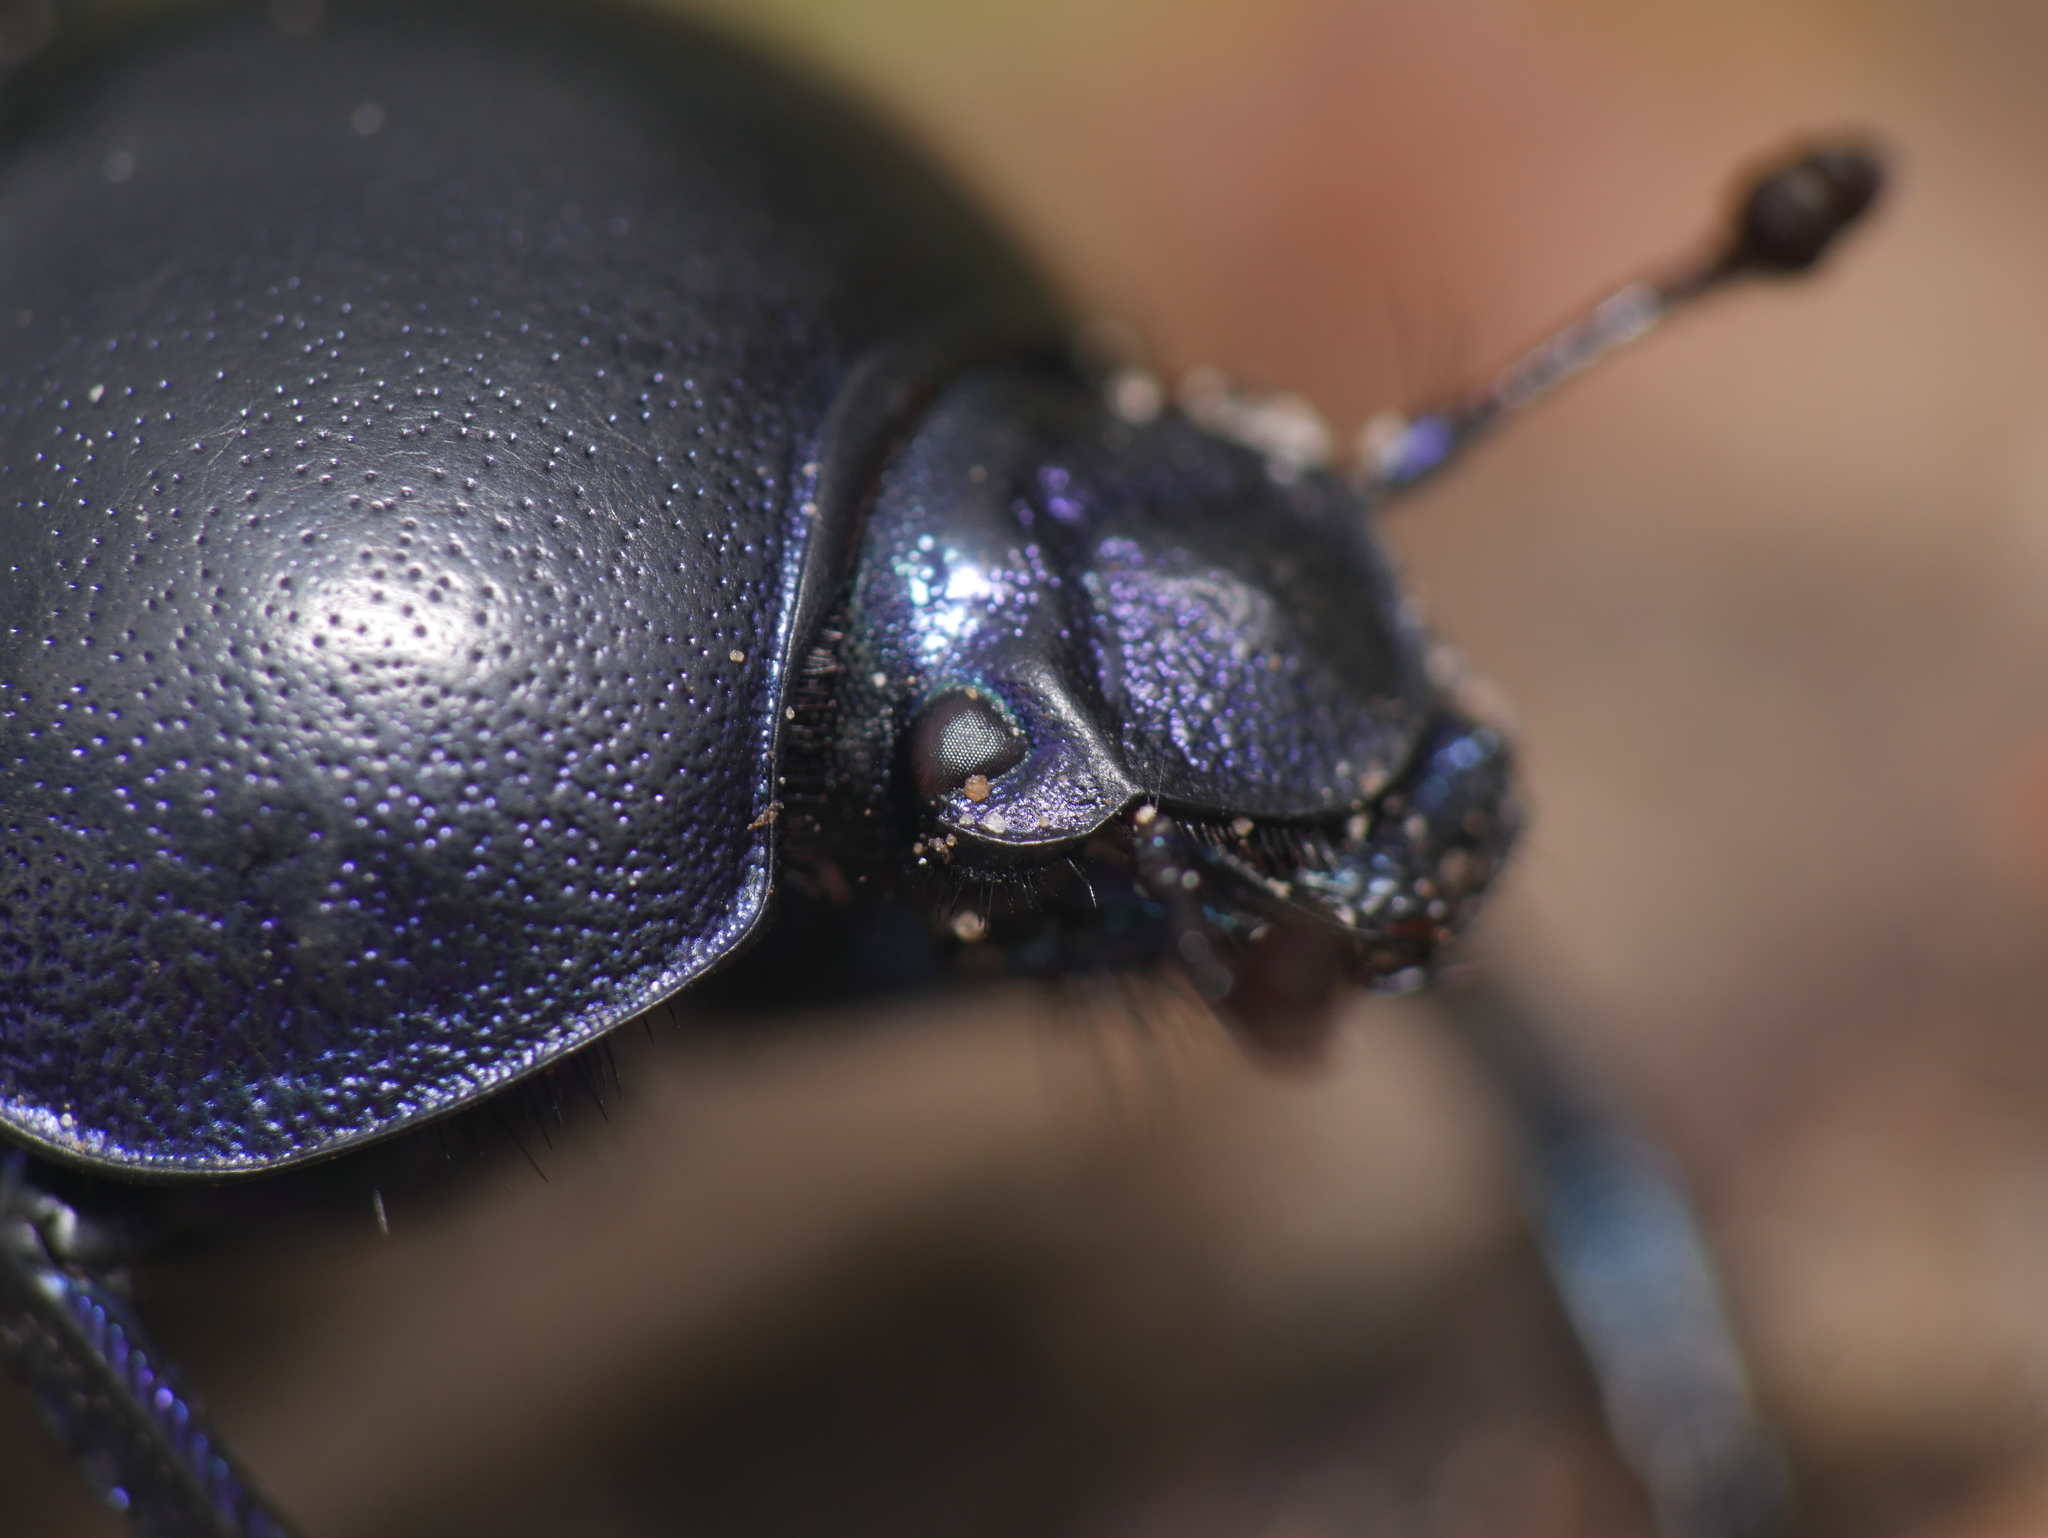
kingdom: Animalia
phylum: Arthropoda
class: Insecta
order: Coleoptera
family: Geotrupidae
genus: Trypocopris
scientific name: Trypocopris vernalis
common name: Spring dumbledor
